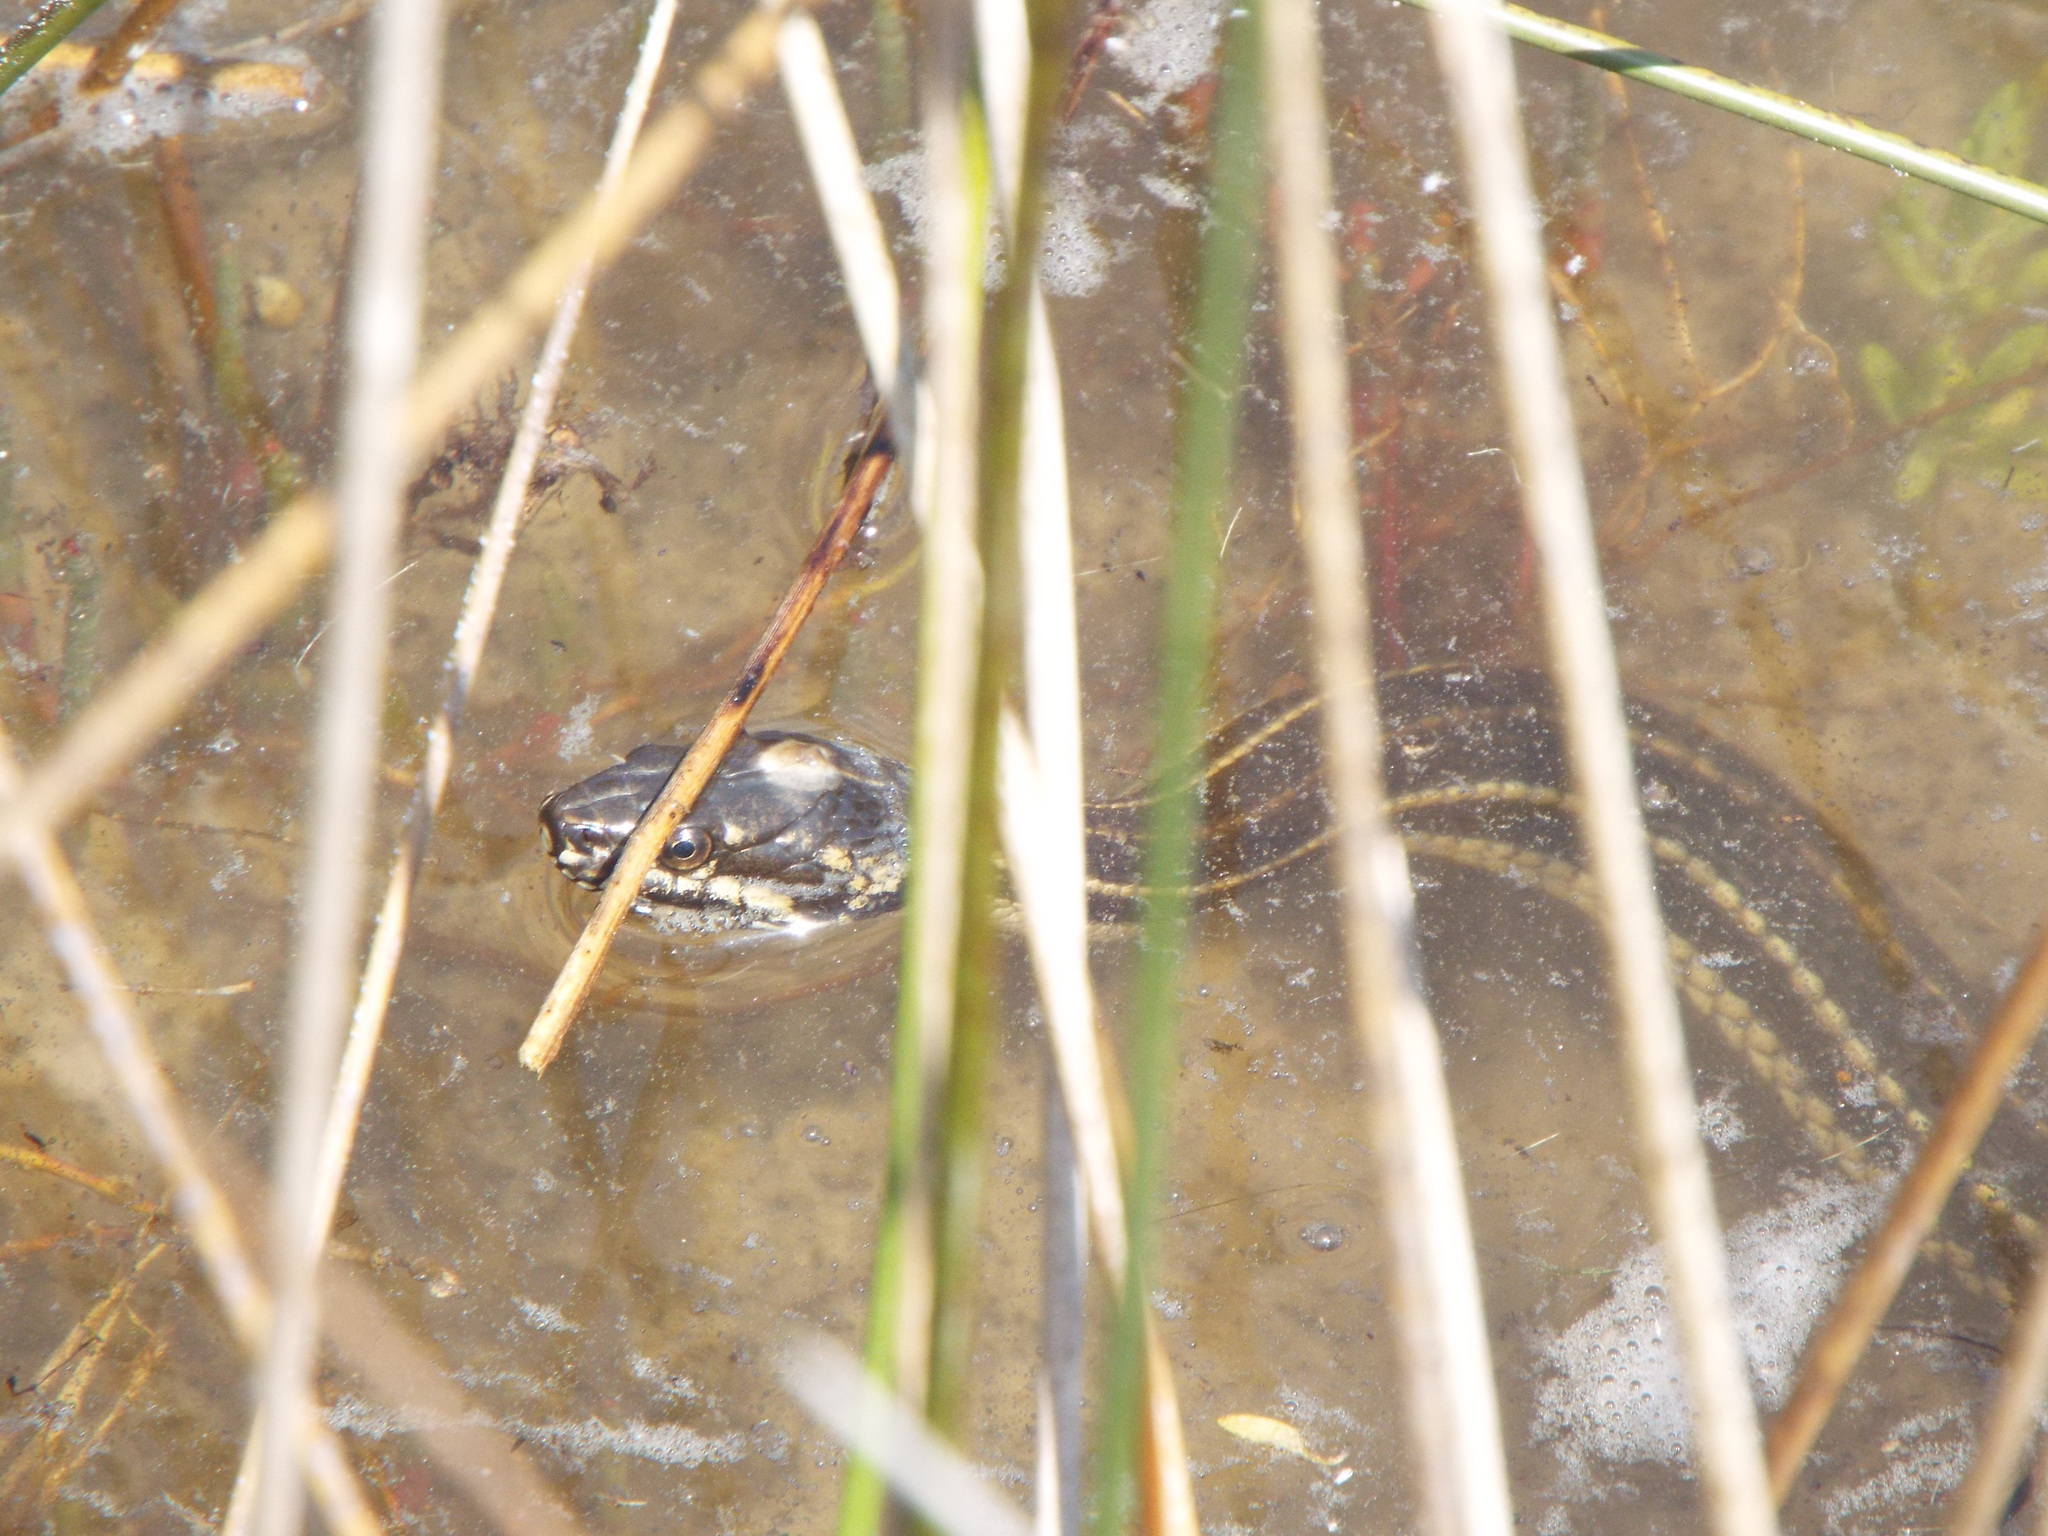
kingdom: Animalia
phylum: Chordata
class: Squamata
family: Colubridae
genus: Nerodia
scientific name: Nerodia clarkii
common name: Atlantic saltmarsh snake
